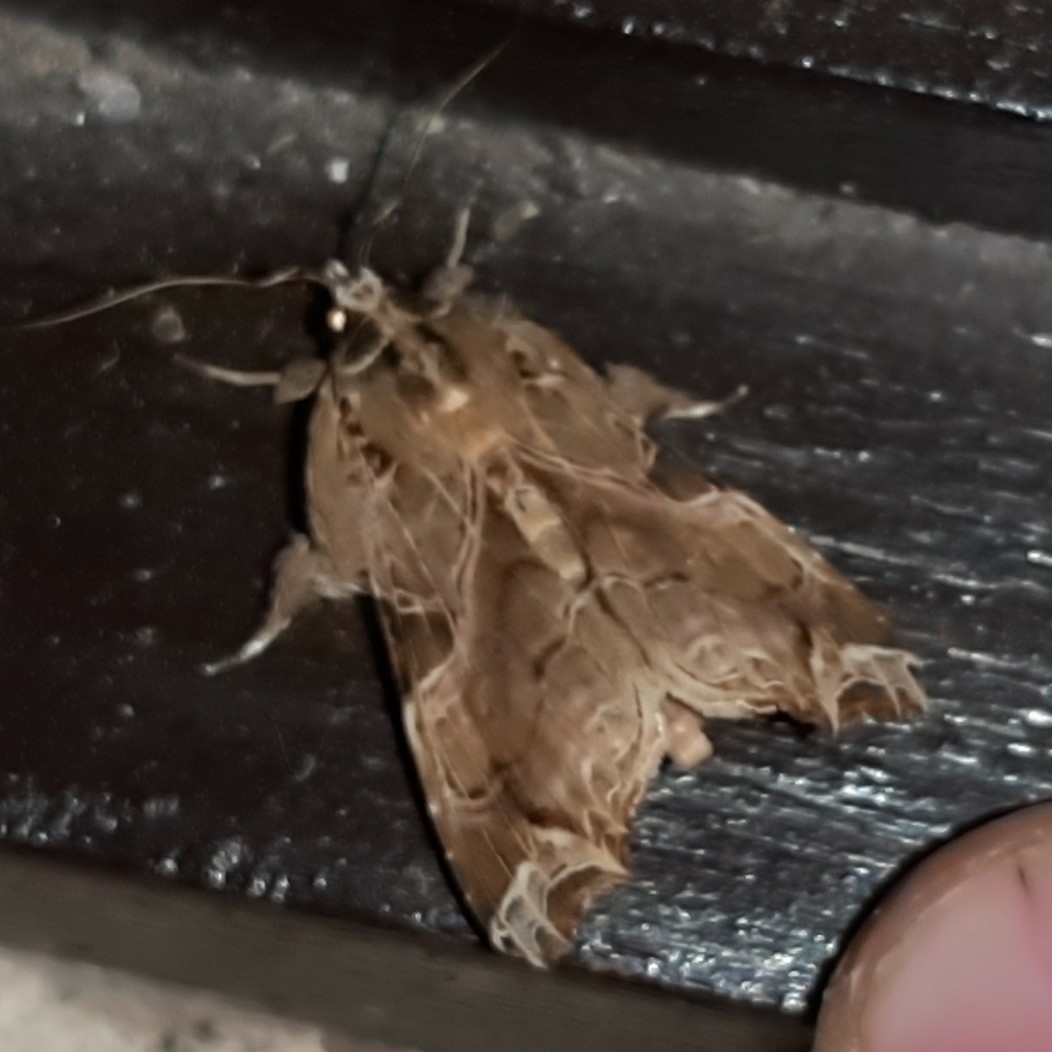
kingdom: Animalia
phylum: Arthropoda
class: Insecta
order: Lepidoptera
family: Noctuidae
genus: Callopistria
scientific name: Callopistria floridensis
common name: Florida fern moth
